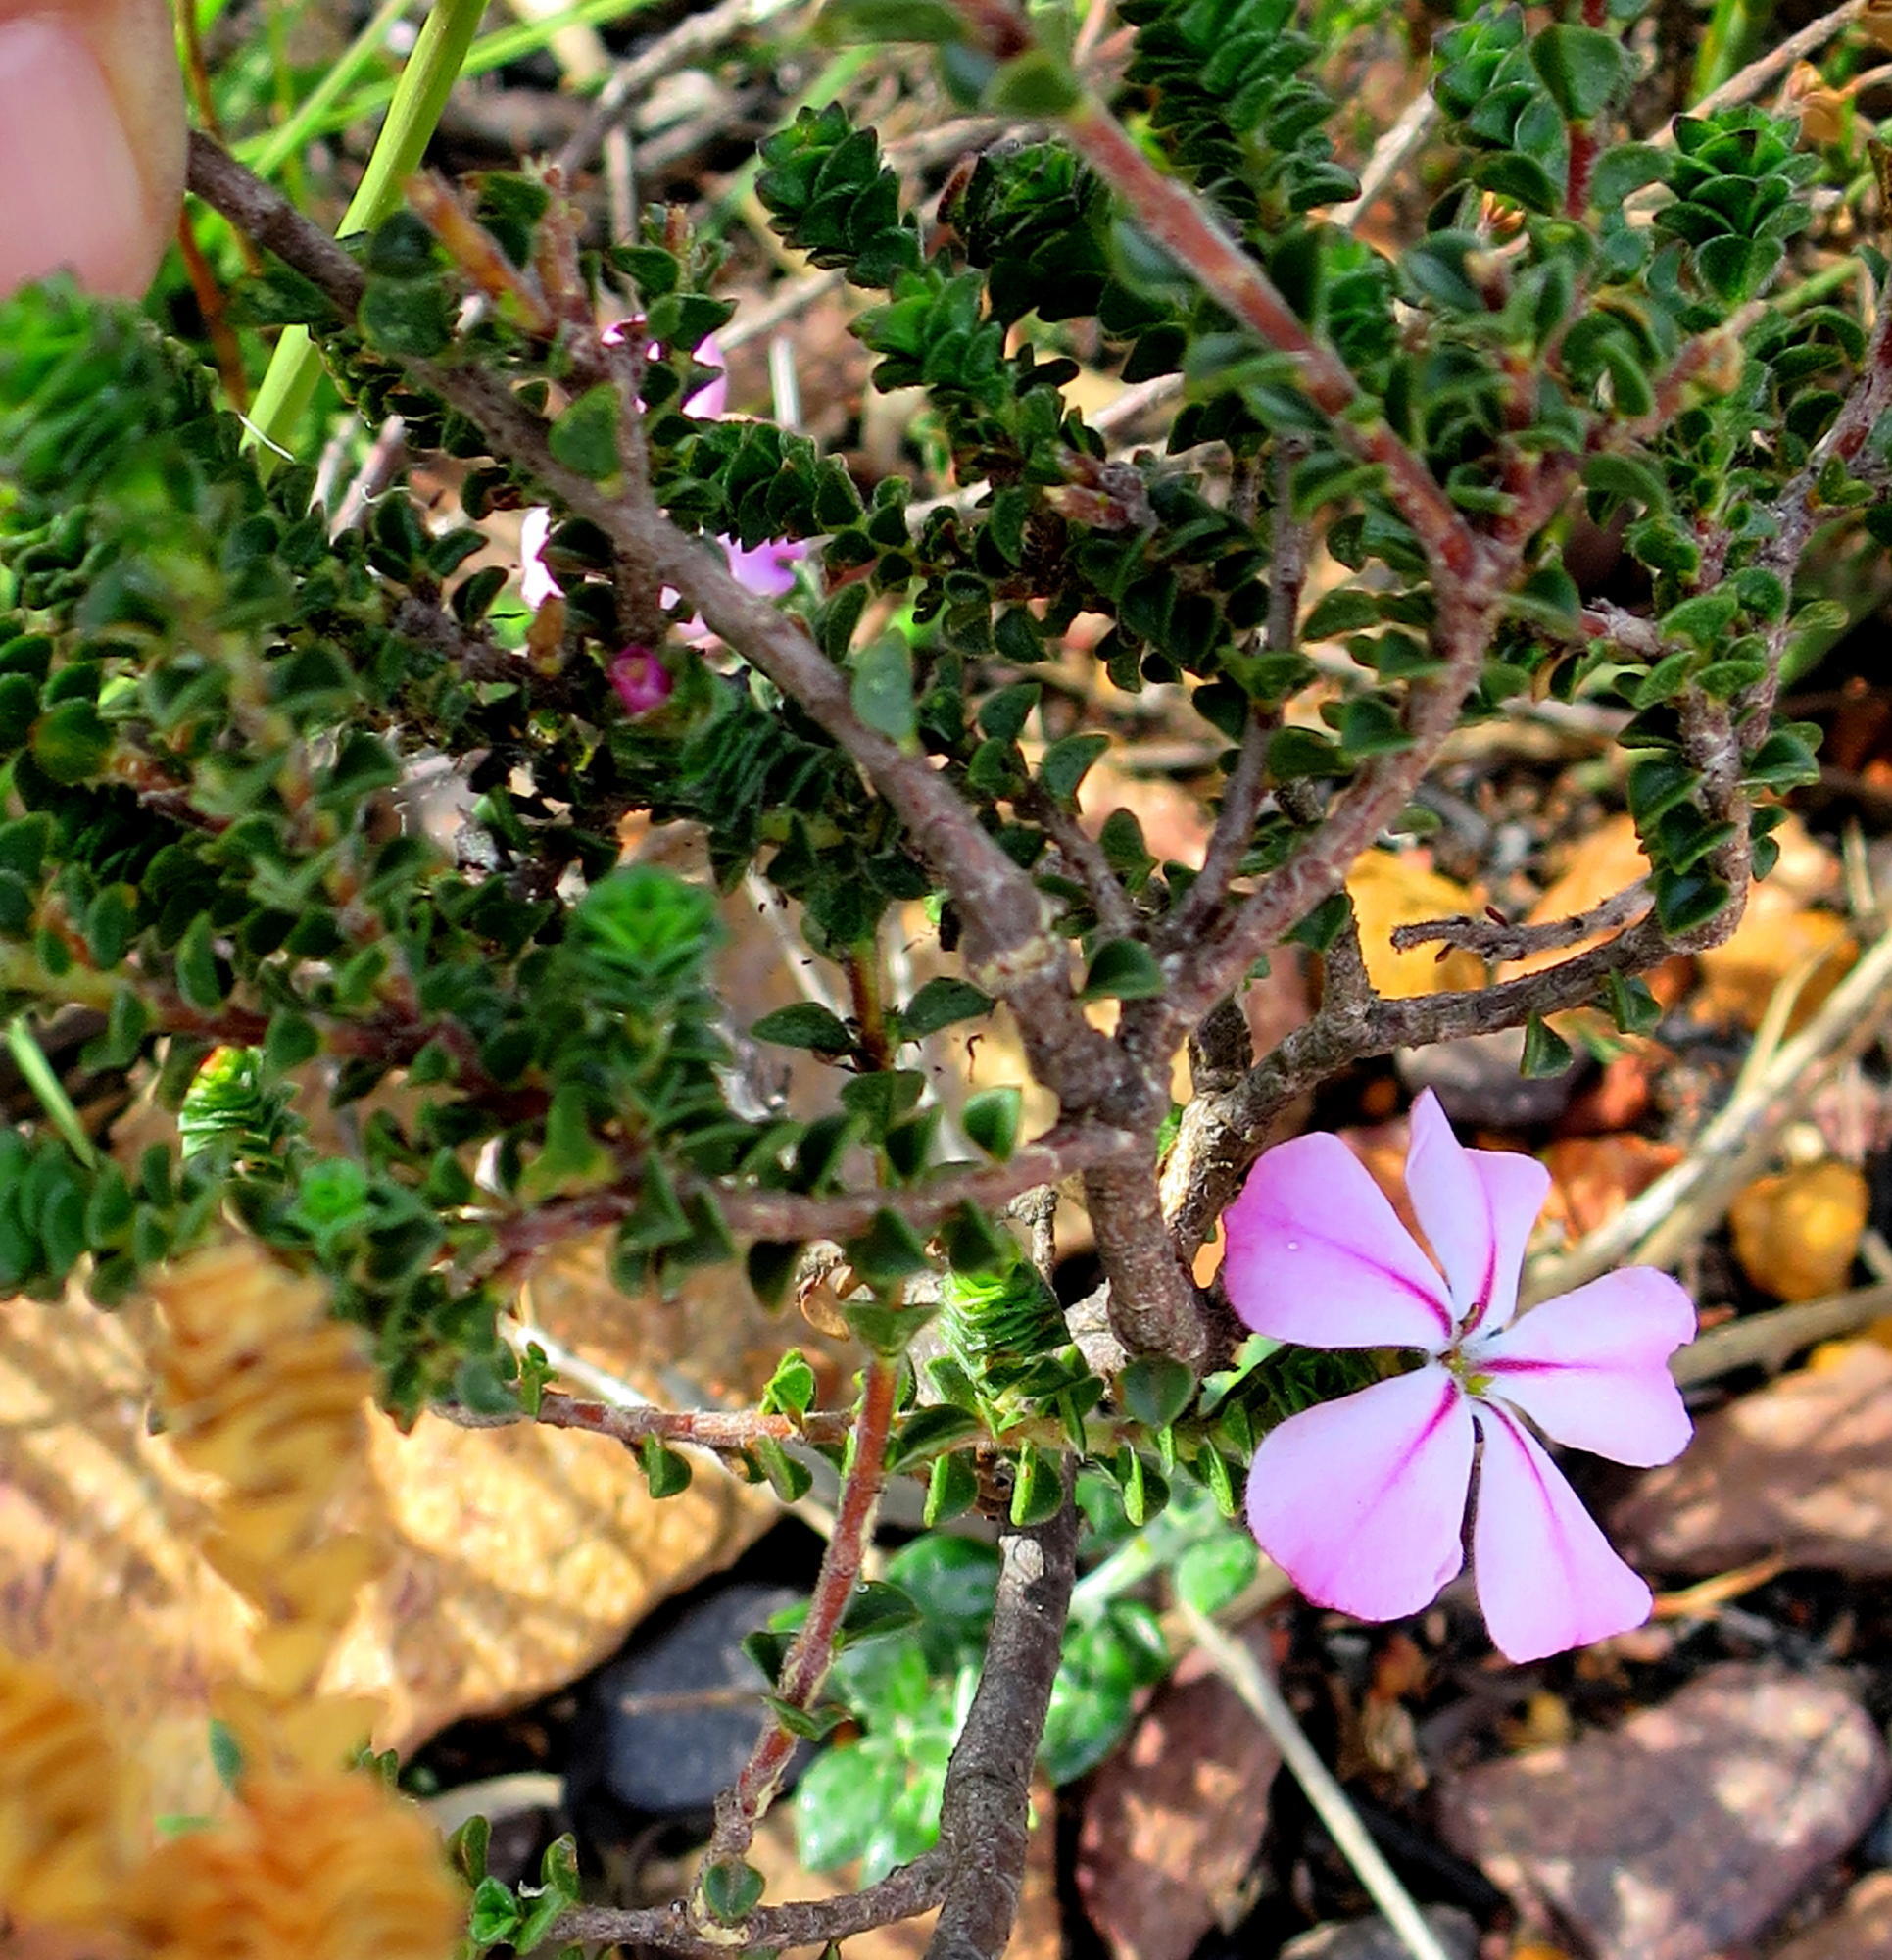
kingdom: Plantae
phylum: Tracheophyta
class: Magnoliopsida
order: Sapindales
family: Rutaceae
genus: Acmadenia
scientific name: Acmadenia tetragona
